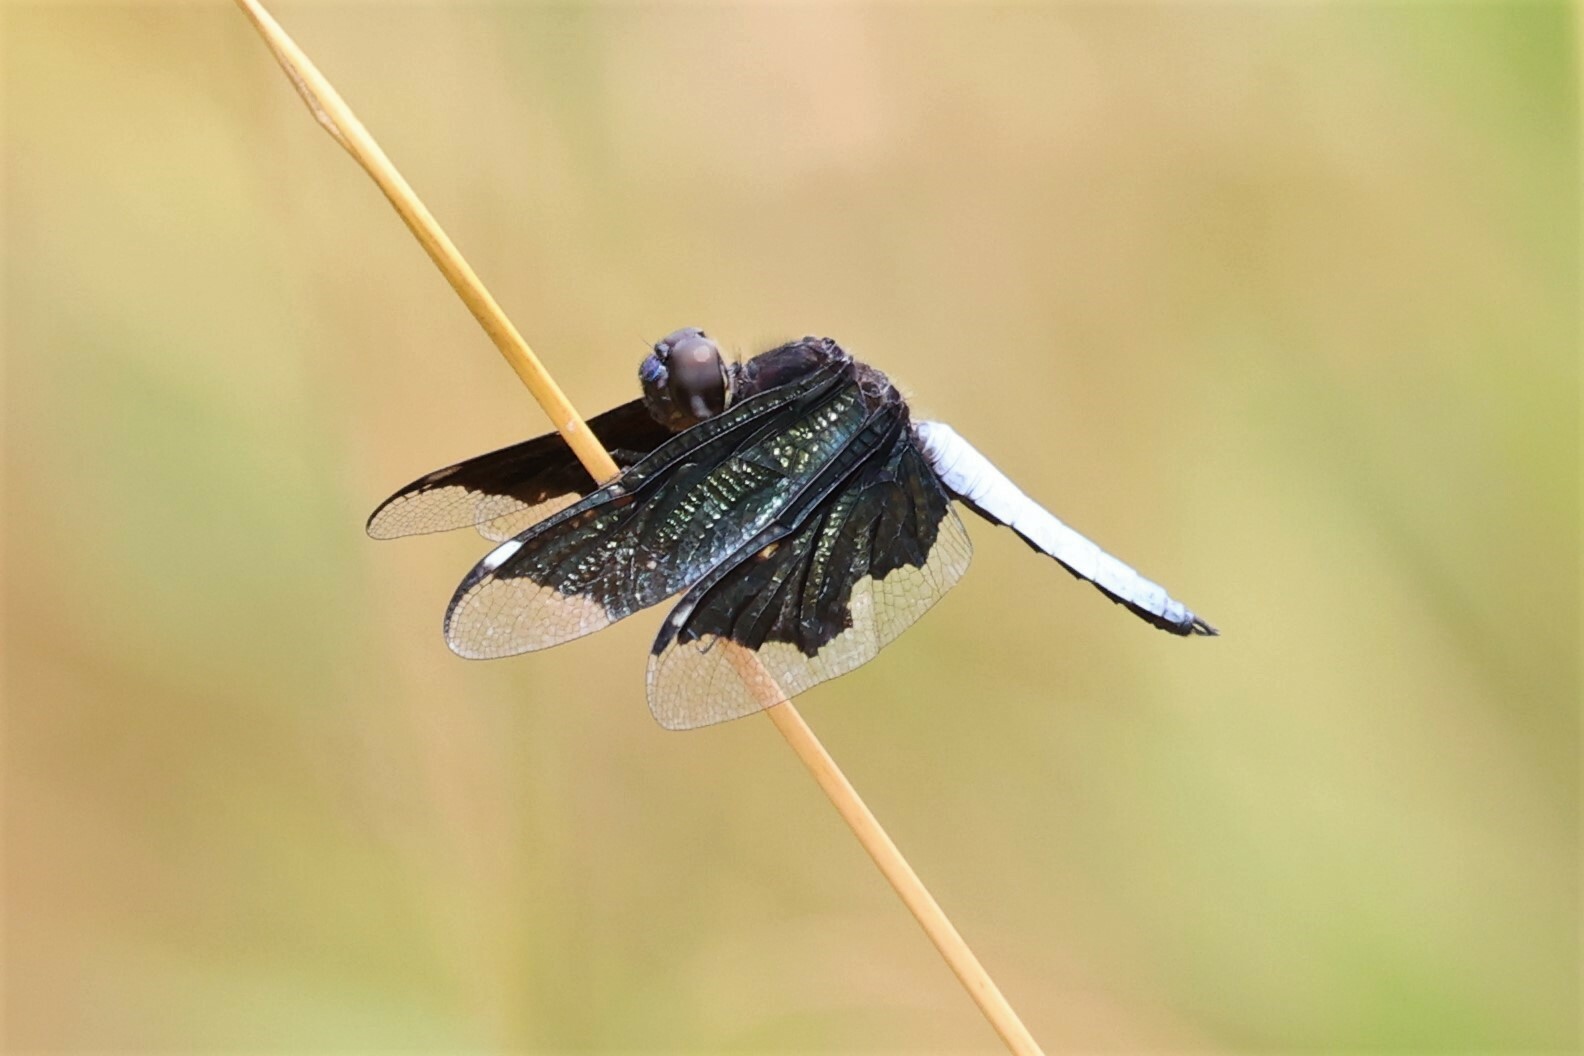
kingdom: Animalia
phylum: Arthropoda
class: Insecta
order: Odonata
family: Libellulidae
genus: Palpopleura
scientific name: Palpopleura lucia
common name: Lucia widow
